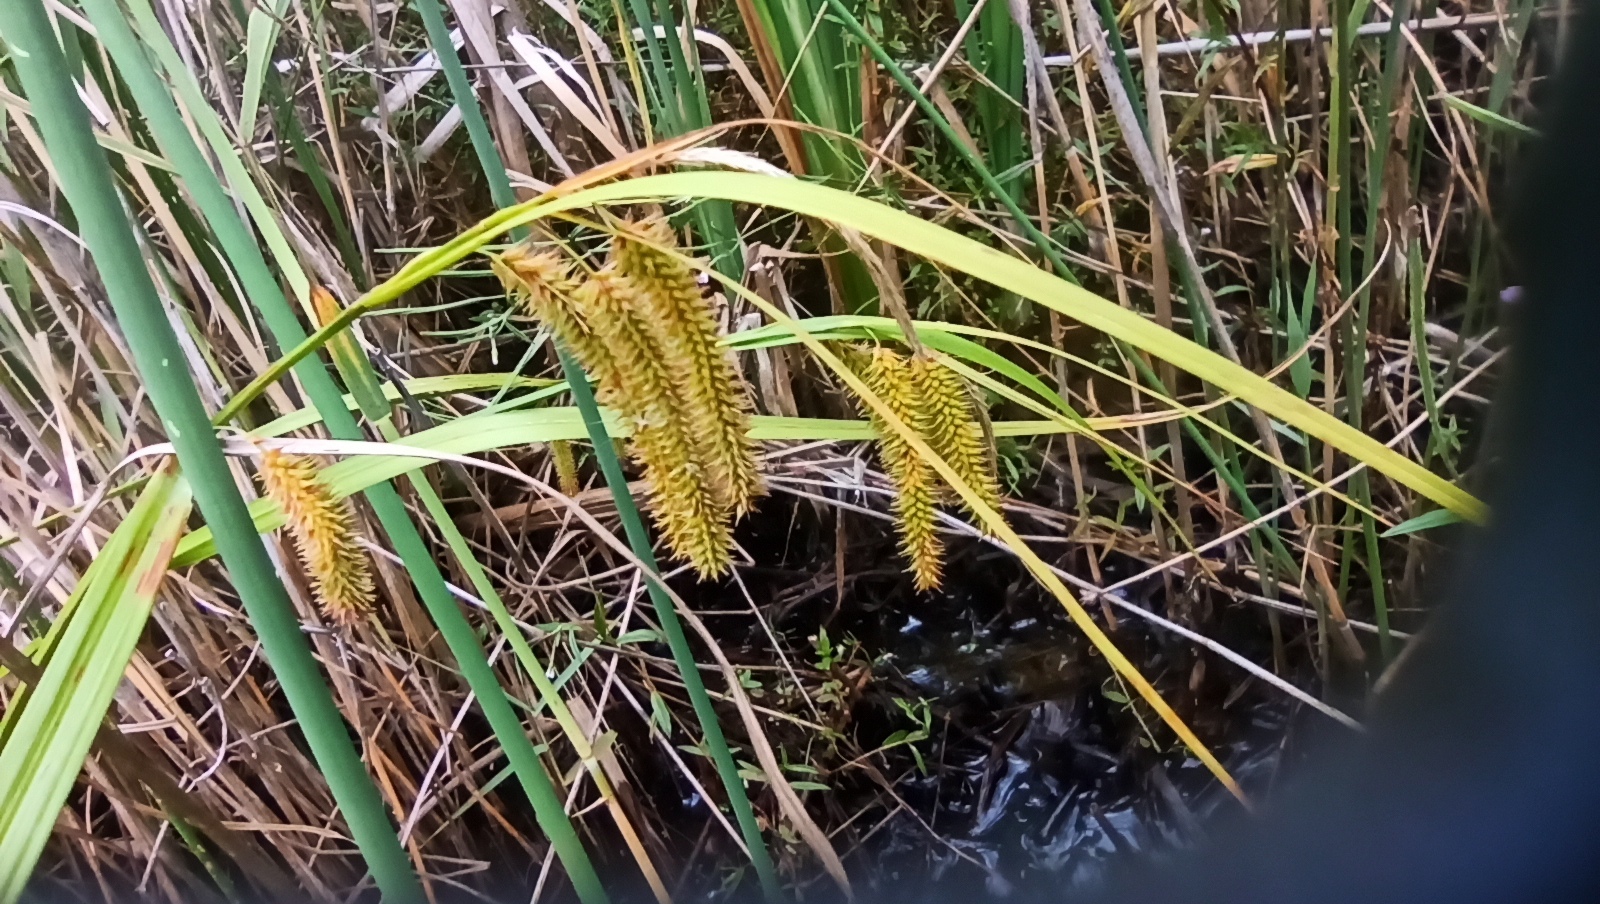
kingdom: Plantae
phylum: Tracheophyta
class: Liliopsida
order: Poales
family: Cyperaceae
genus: Carex
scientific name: Carex pseudocyperus
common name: Cyperus sedge
